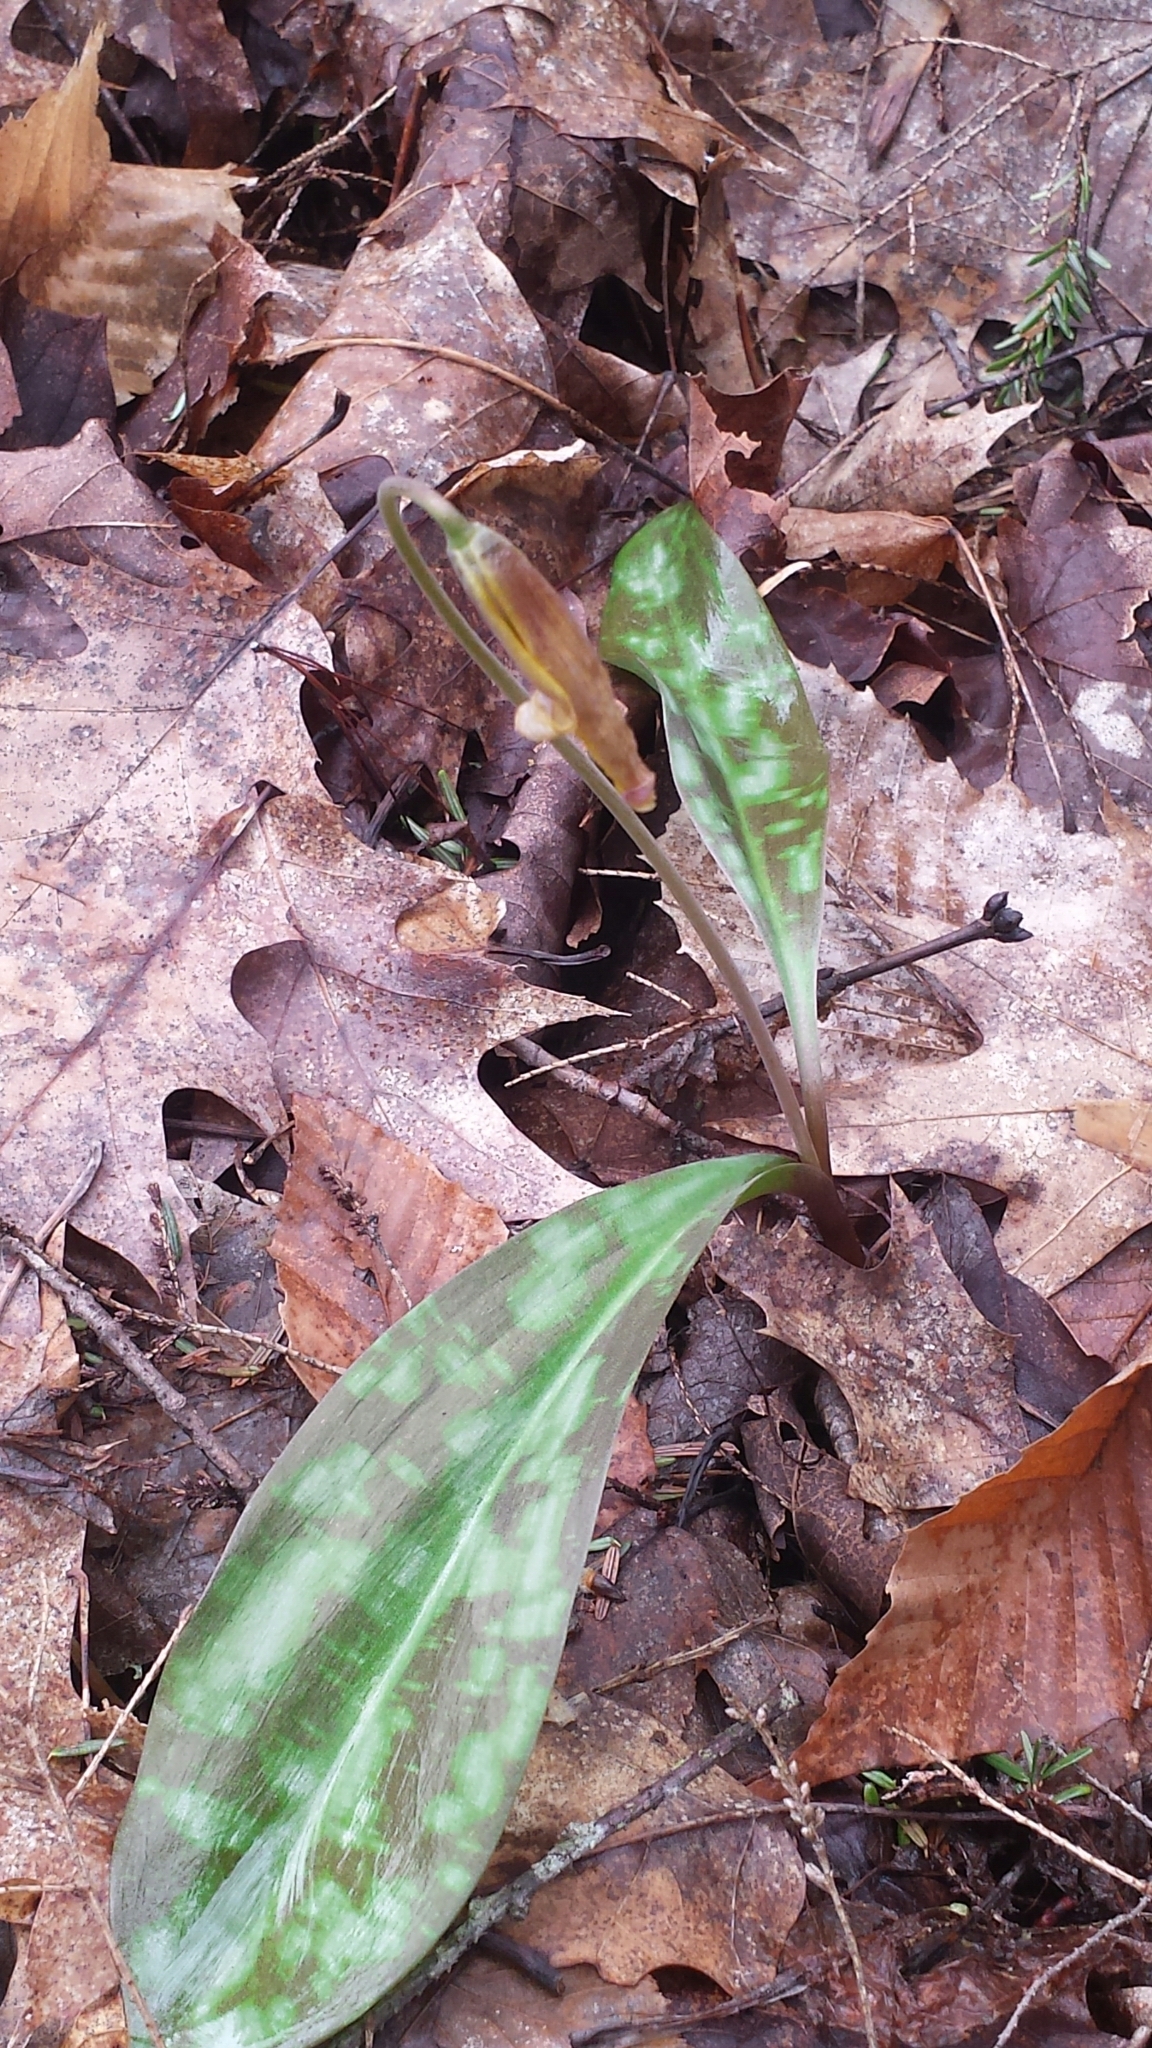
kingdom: Plantae
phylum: Tracheophyta
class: Liliopsida
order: Liliales
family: Liliaceae
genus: Erythronium
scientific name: Erythronium americanum
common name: Yellow adder's-tongue
